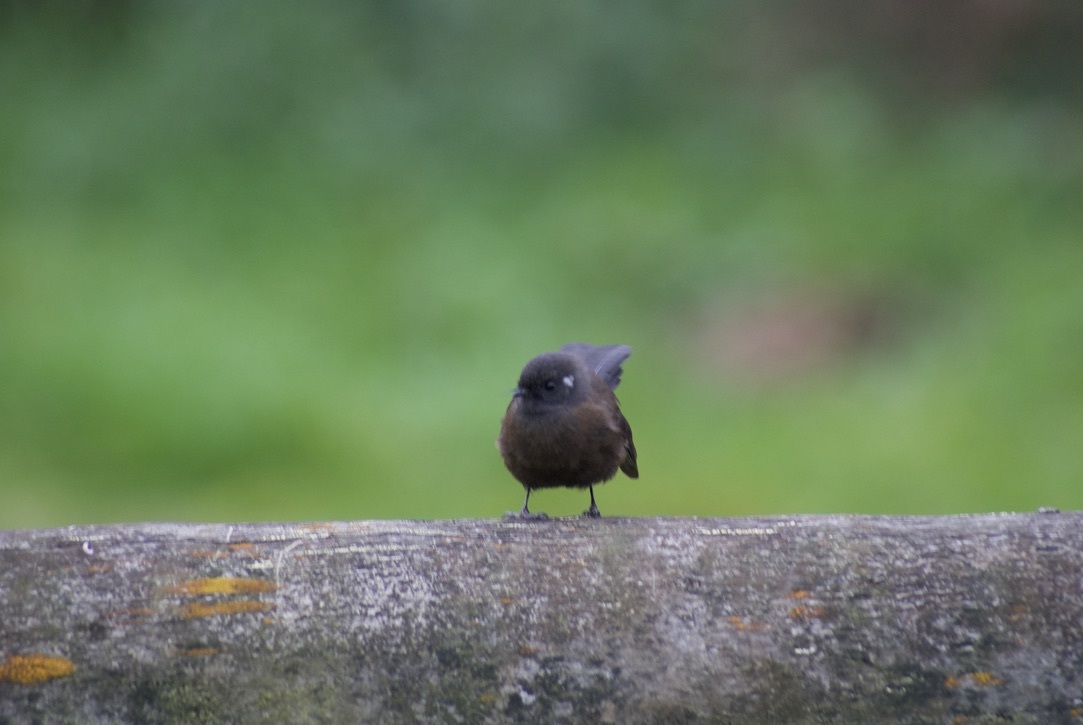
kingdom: Animalia
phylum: Chordata
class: Aves
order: Passeriformes
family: Rhipiduridae
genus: Rhipidura
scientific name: Rhipidura fuliginosa
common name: New zealand fantail
